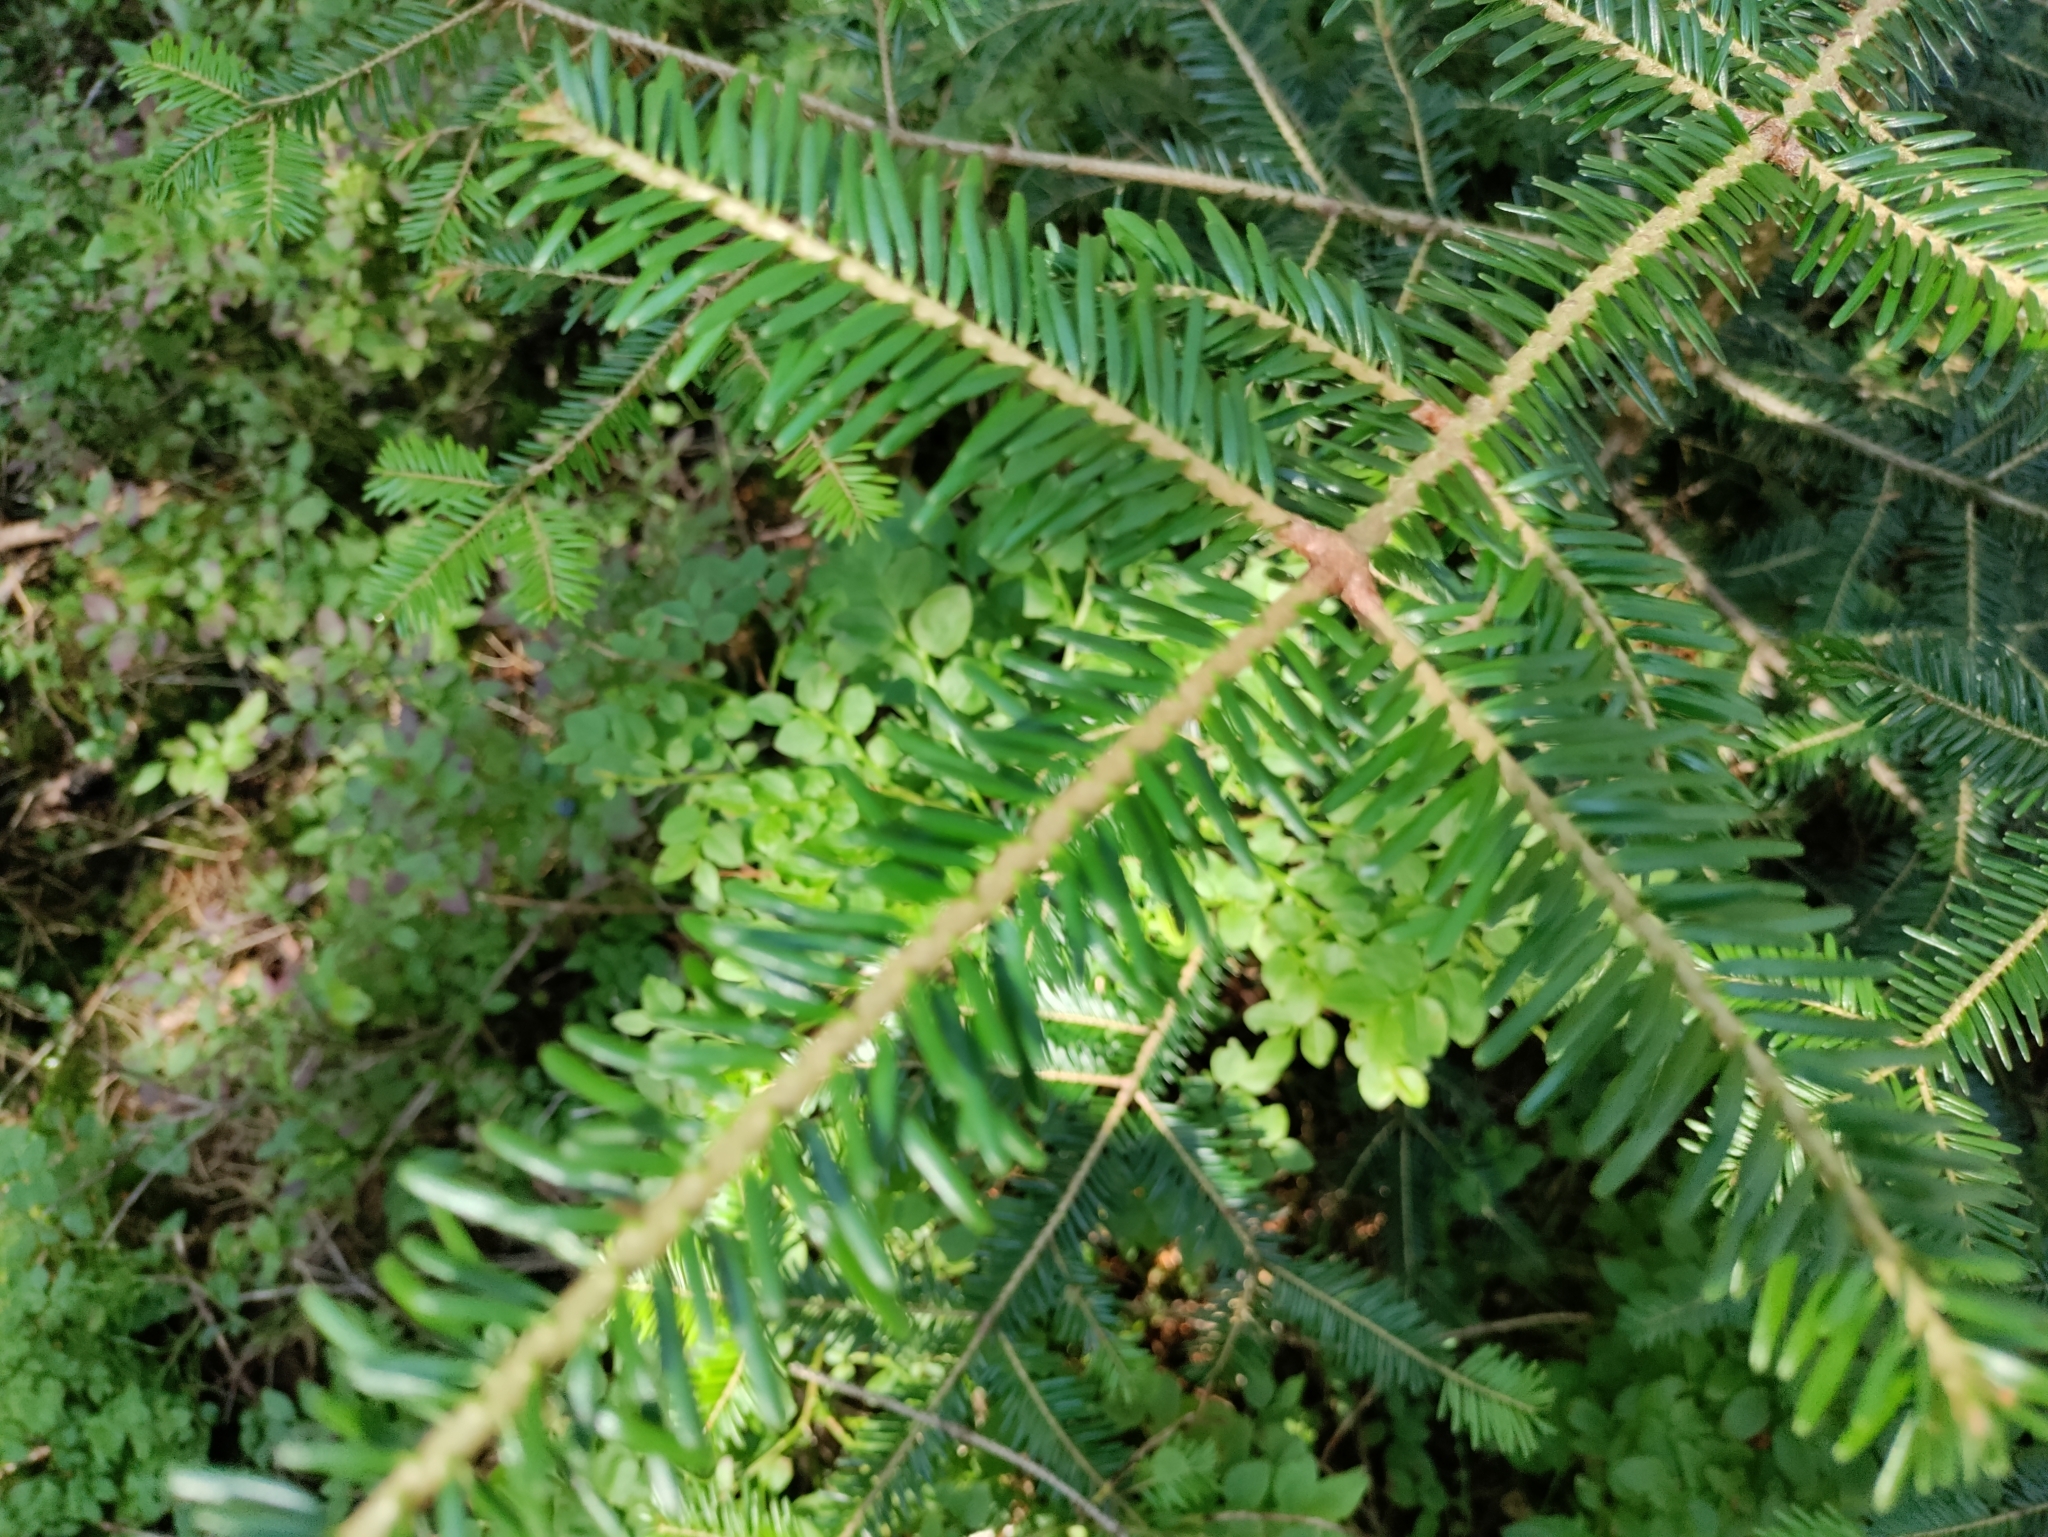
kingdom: Plantae
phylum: Tracheophyta
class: Pinopsida
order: Pinales
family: Pinaceae
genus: Abies
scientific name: Abies alba
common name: Silver fir
